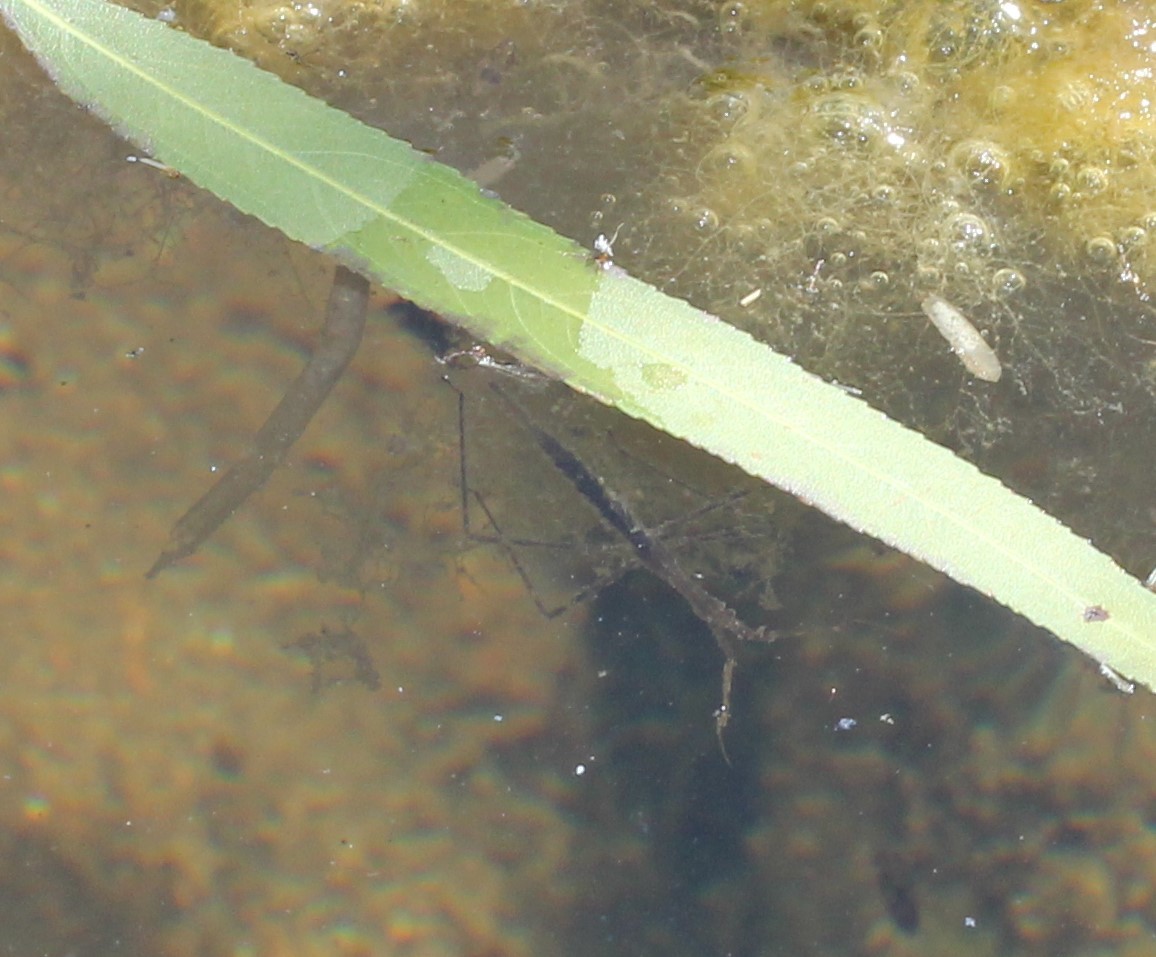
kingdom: Animalia
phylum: Arthropoda
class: Insecta
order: Hemiptera
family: Nepidae
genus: Ranatra
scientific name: Ranatra quadridentata
